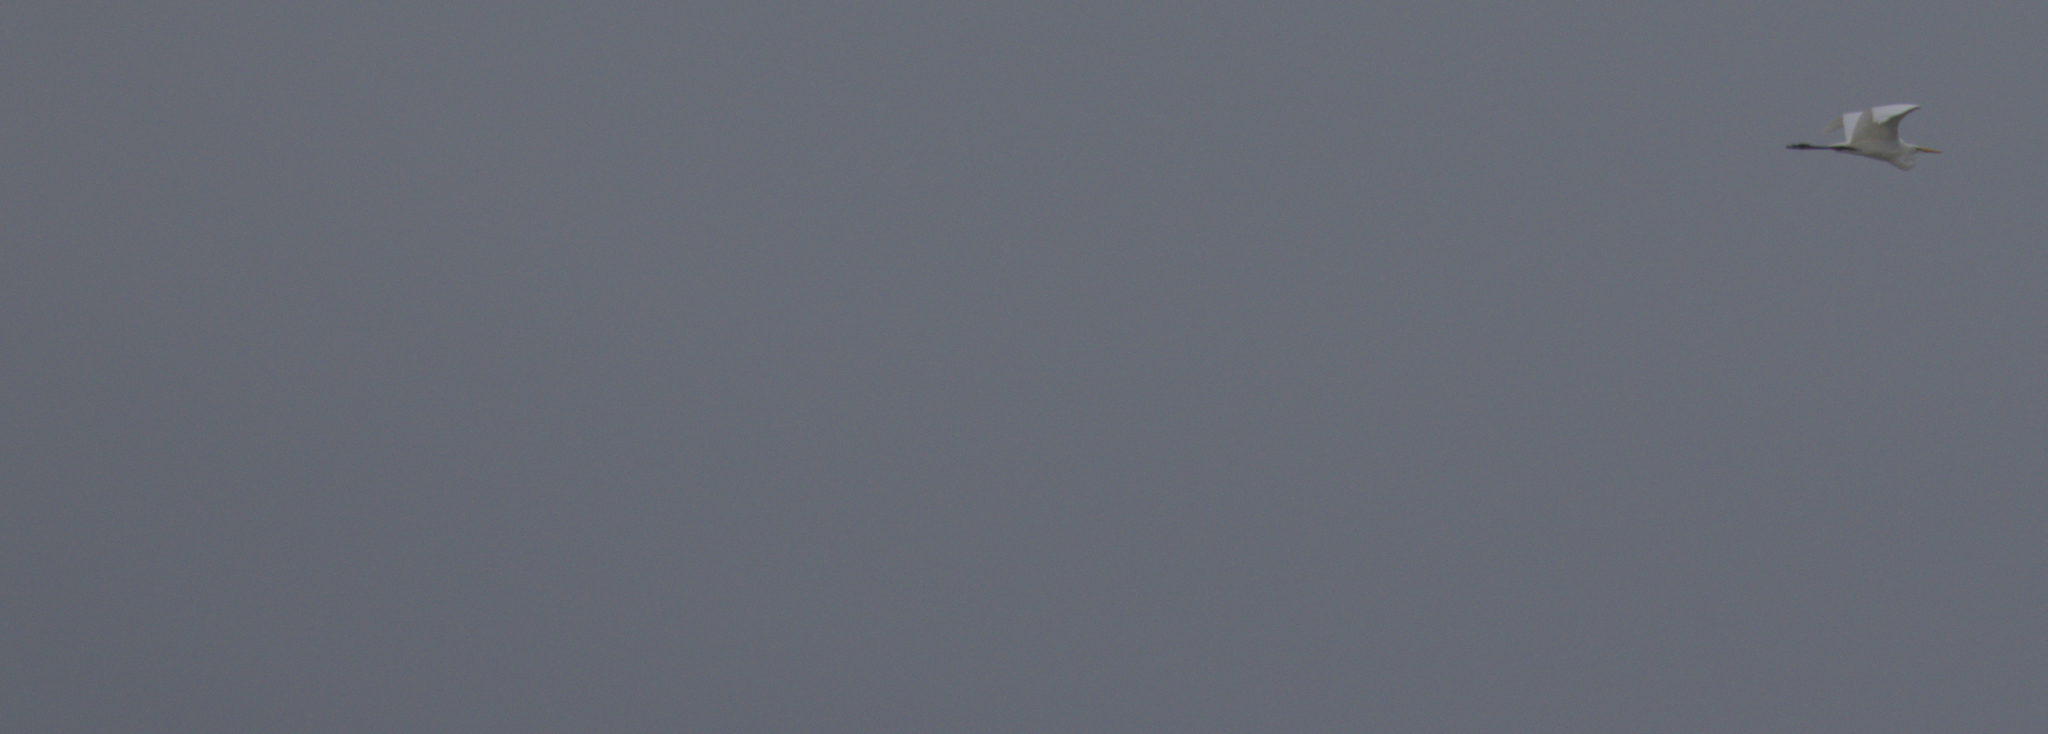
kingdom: Animalia
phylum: Chordata
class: Aves
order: Pelecaniformes
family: Ardeidae
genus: Ardea
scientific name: Ardea alba
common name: Great egret
